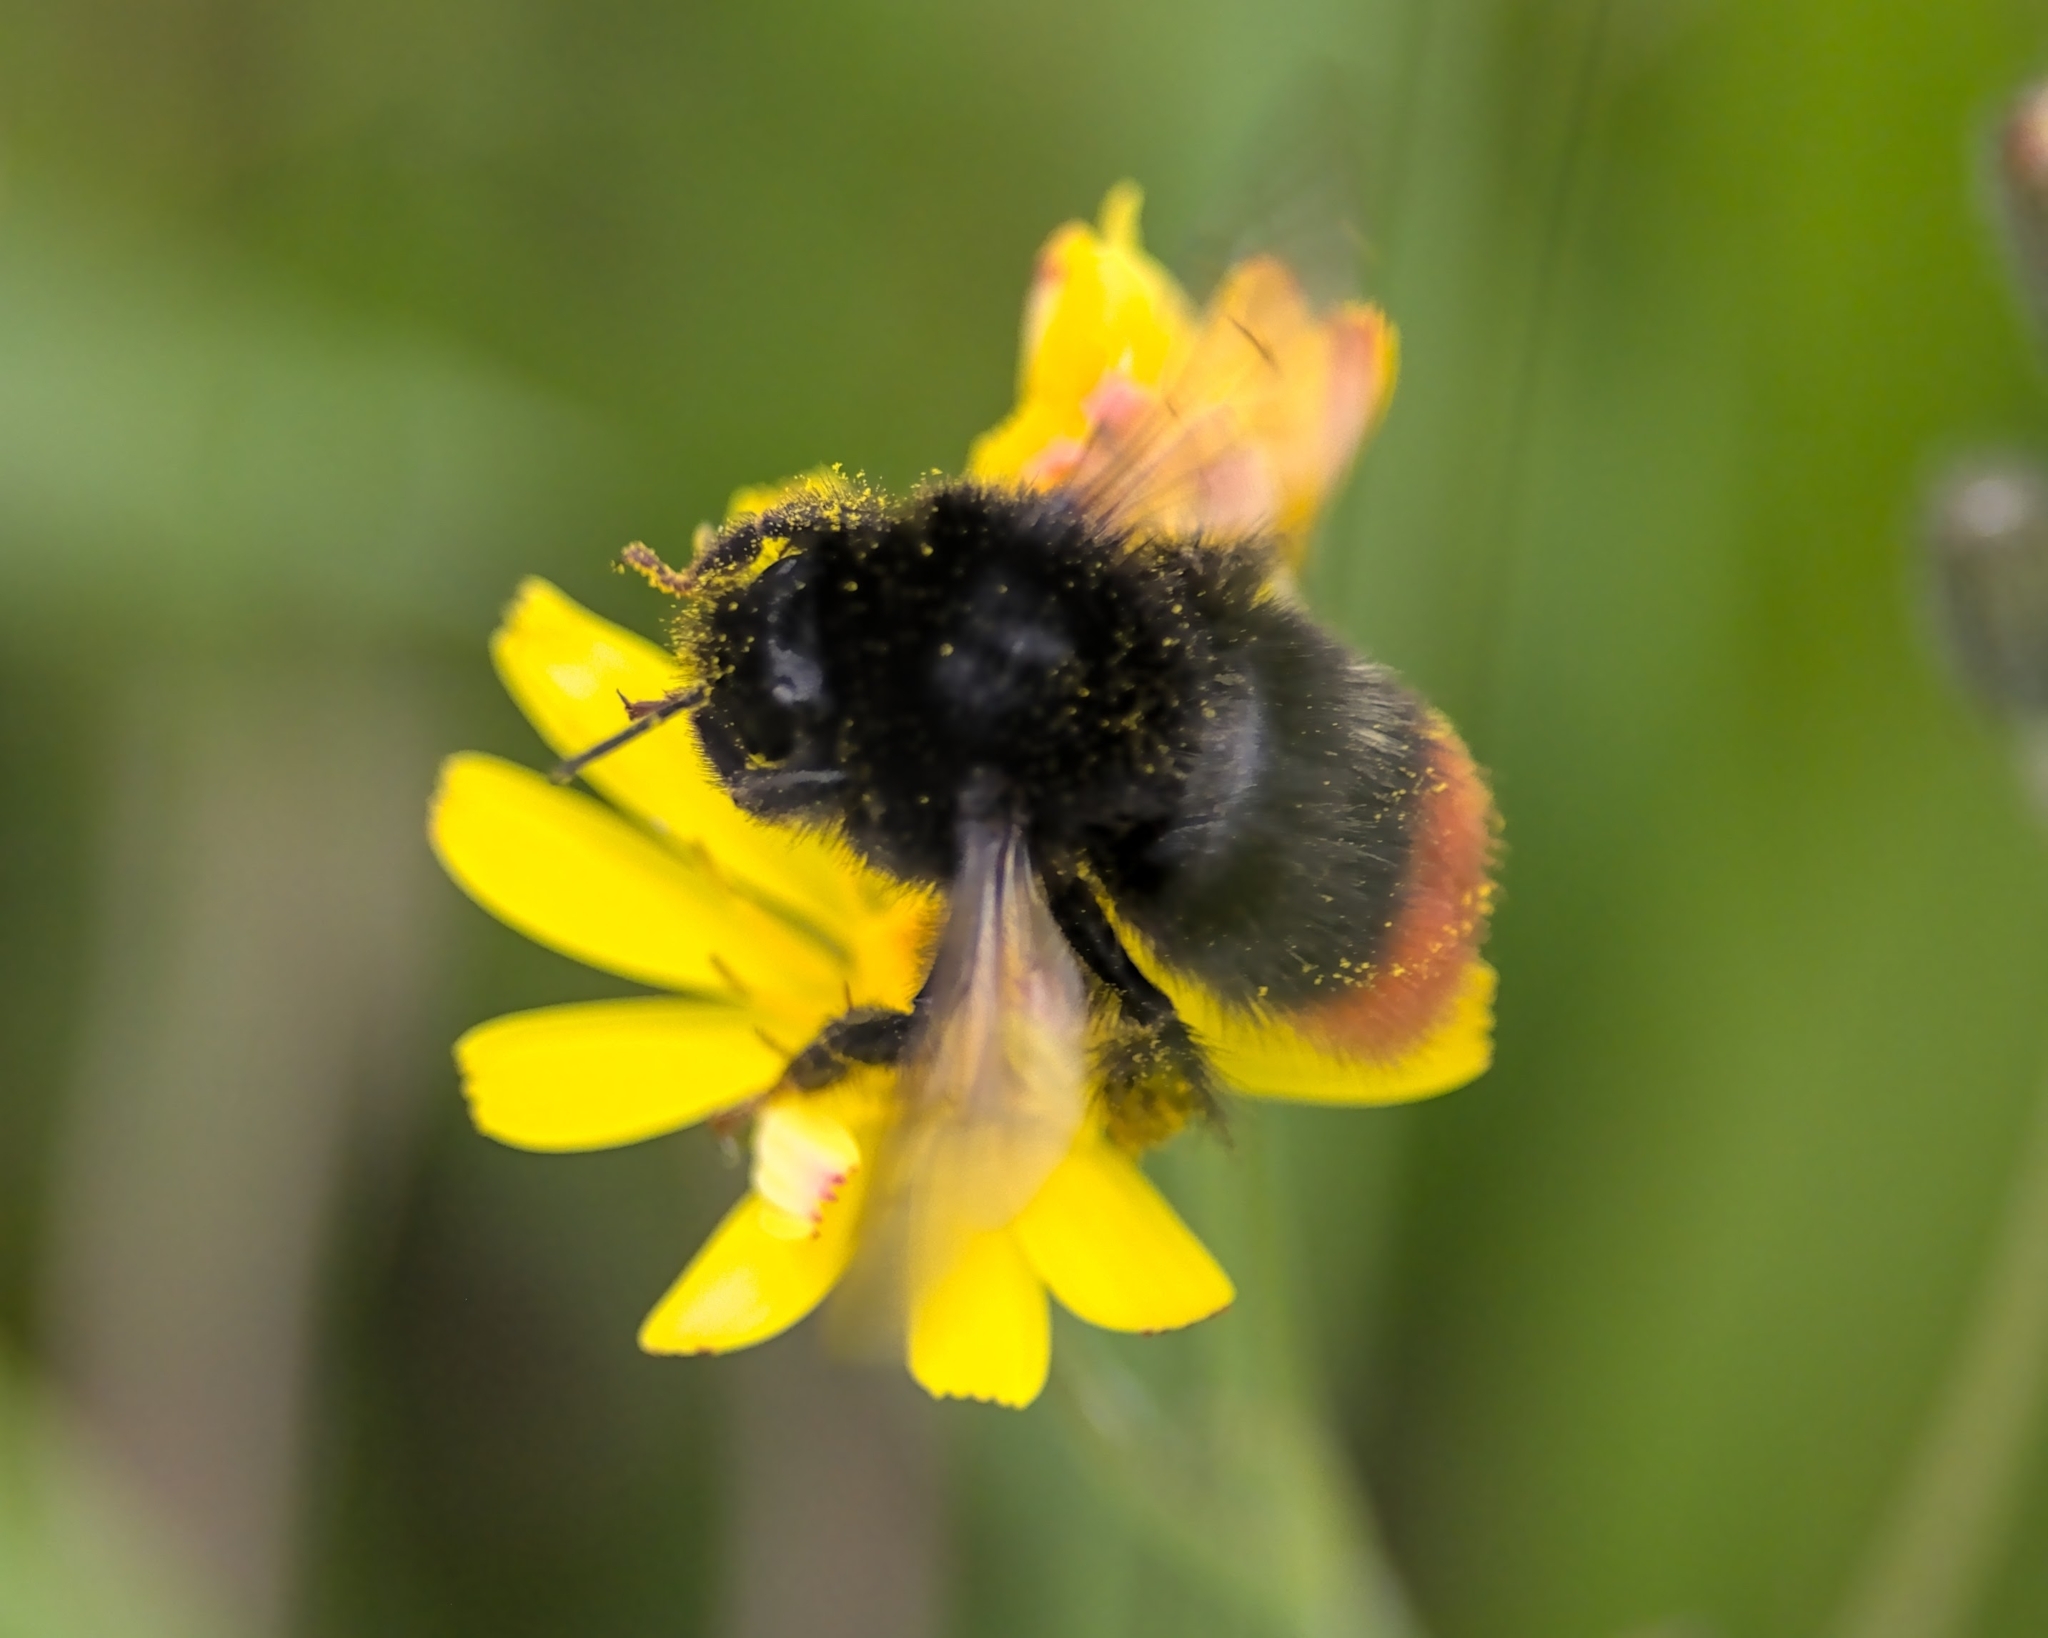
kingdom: Animalia
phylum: Arthropoda
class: Insecta
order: Hymenoptera
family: Apidae
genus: Bombus
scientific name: Bombus lapidarius
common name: Large red-tailed humble-bee
